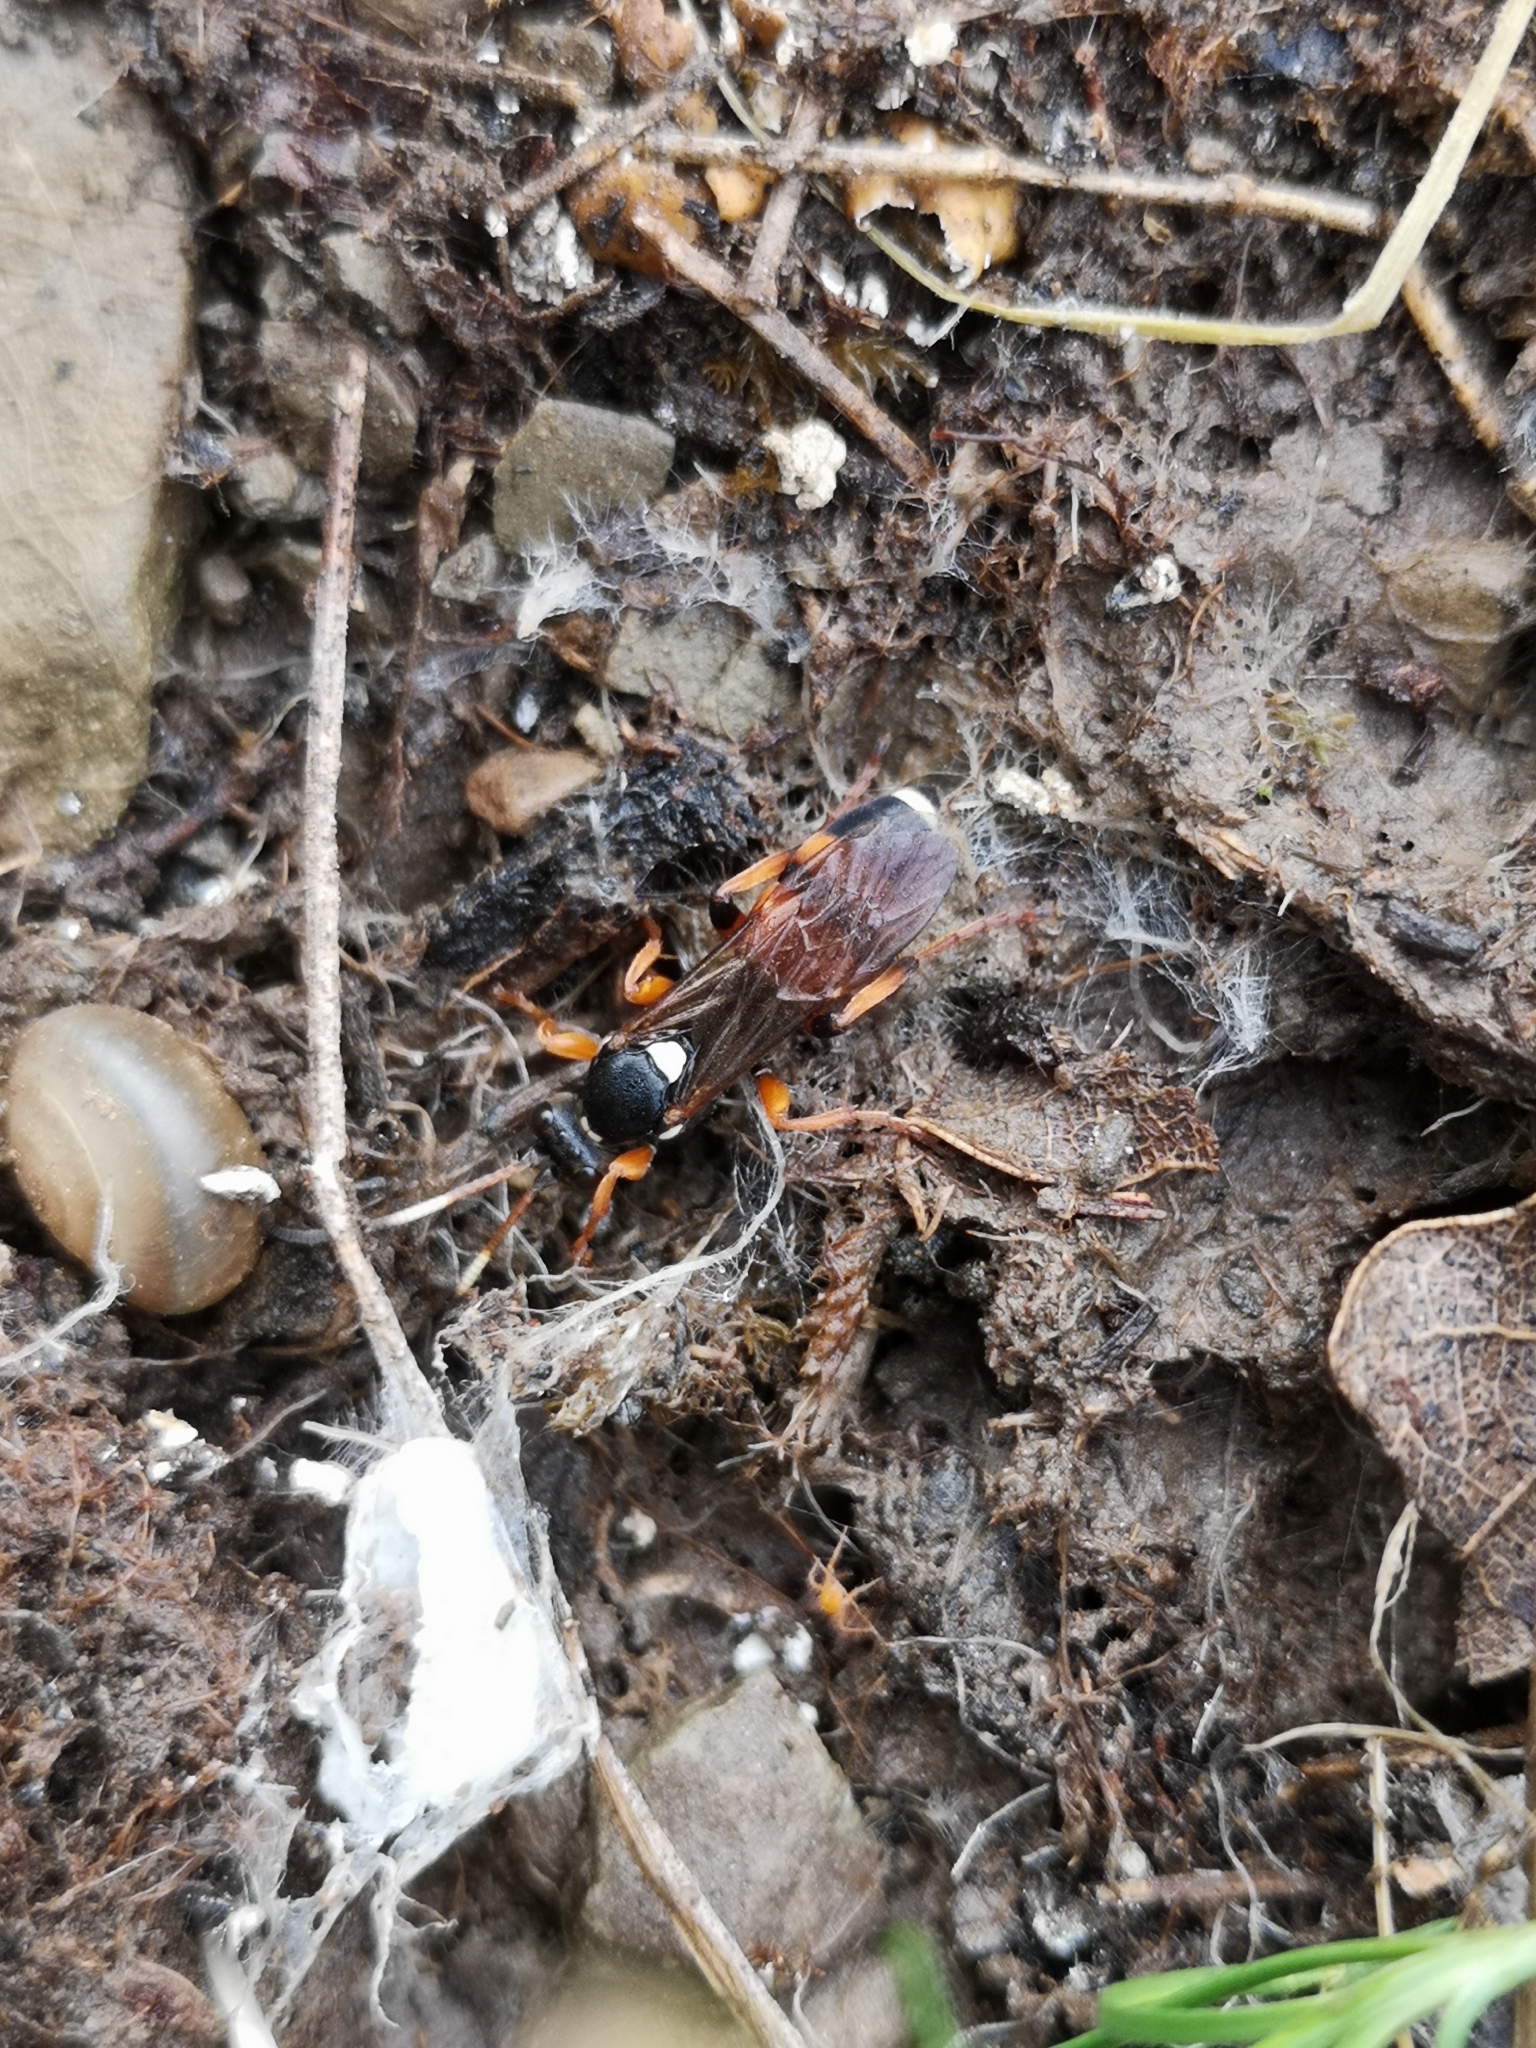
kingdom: Animalia
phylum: Arthropoda
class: Insecta
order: Hymenoptera
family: Ichneumonidae
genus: Ichneumon
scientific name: Ichneumon sarcitorius
